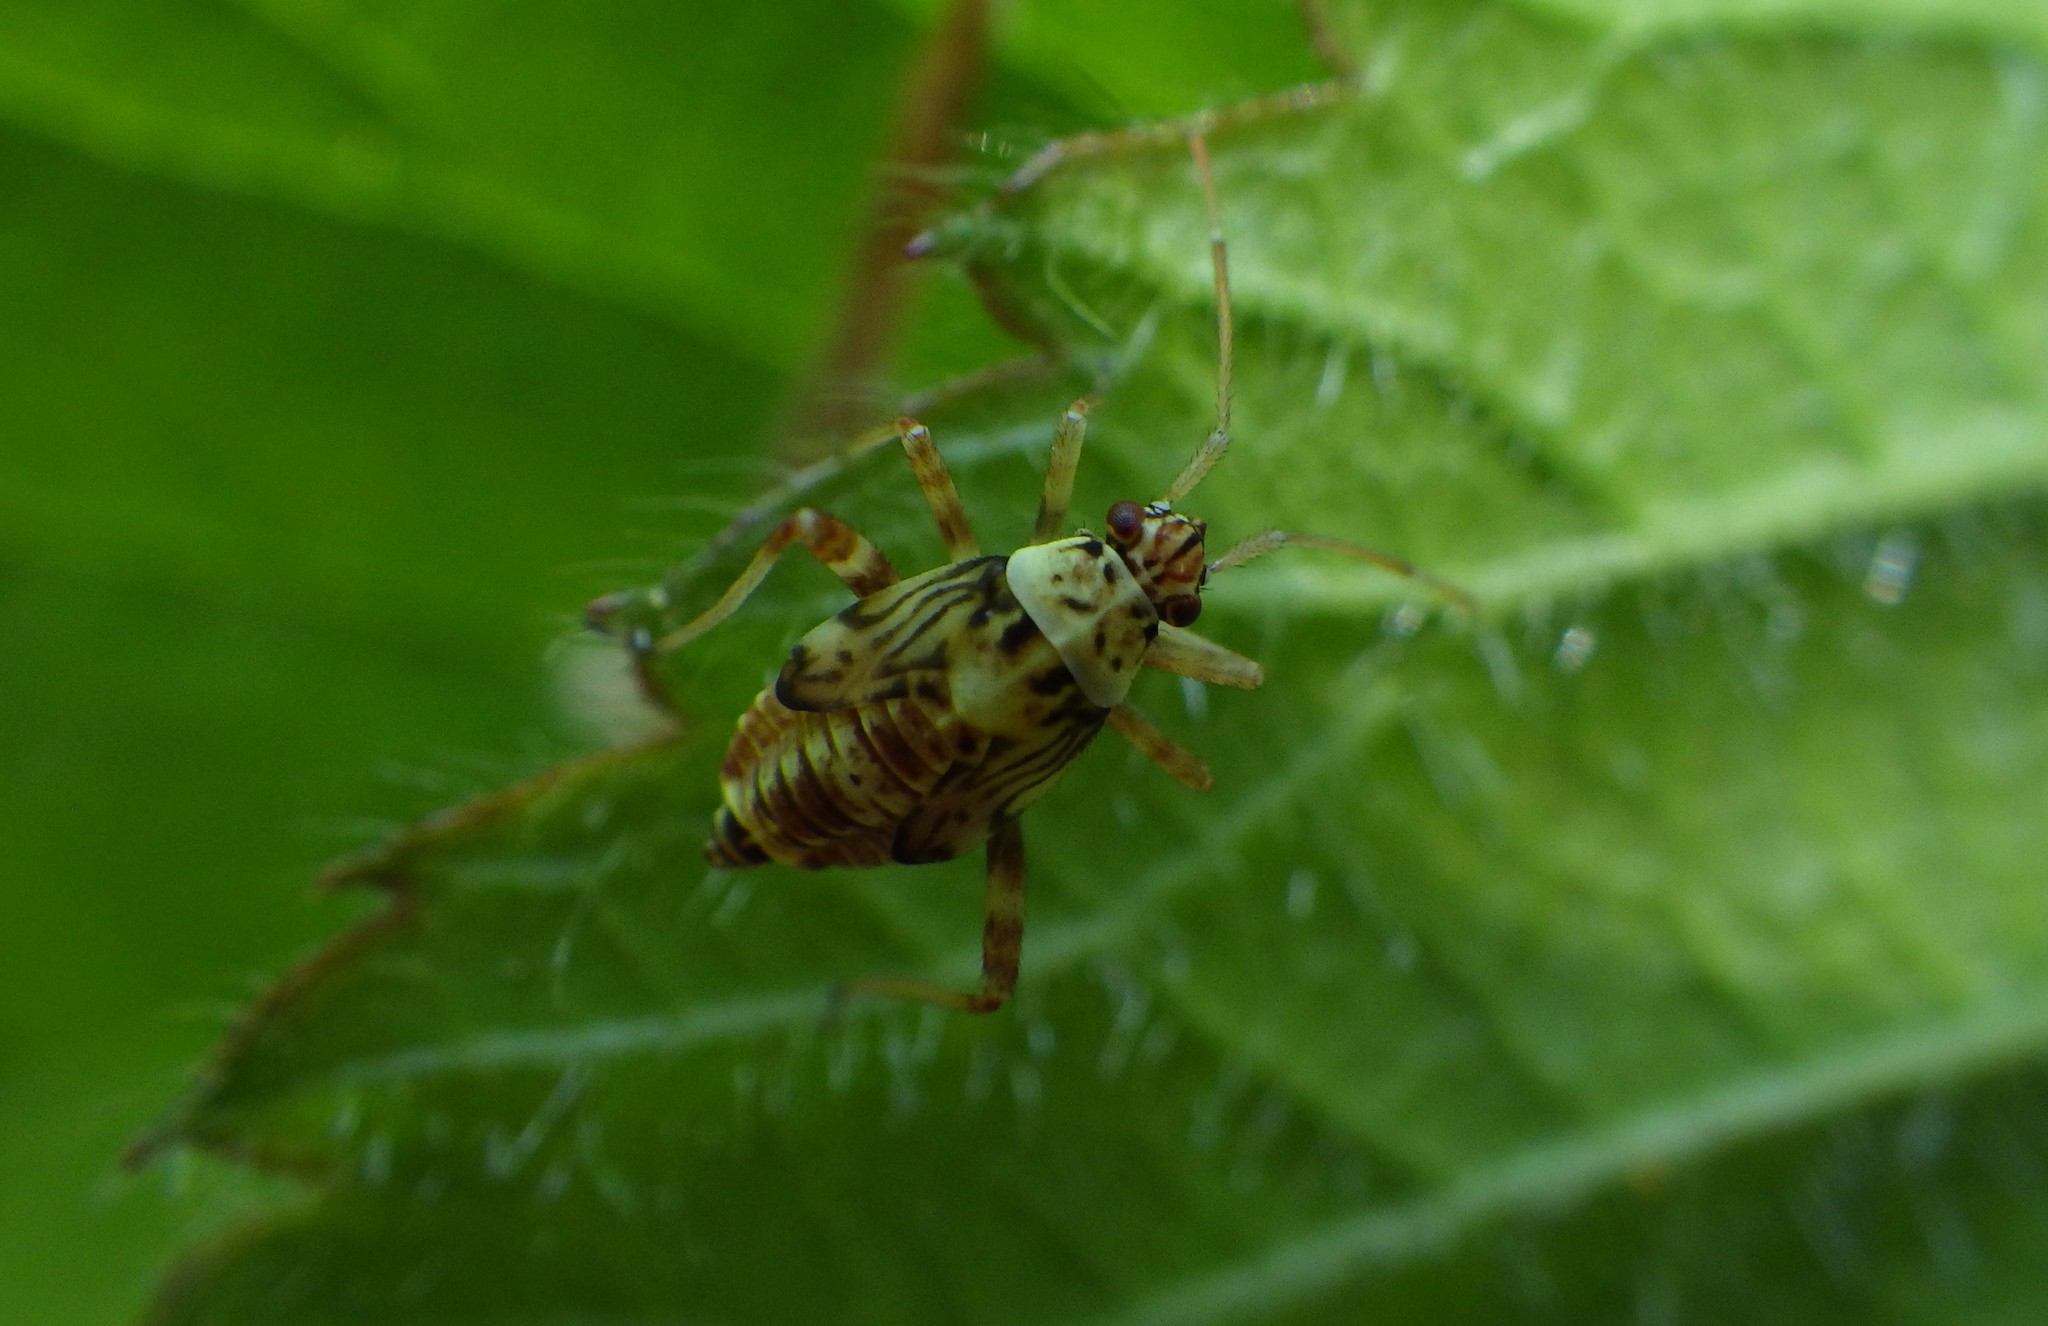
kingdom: Animalia
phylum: Arthropoda
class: Insecta
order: Hemiptera
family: Miridae
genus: Rhabdomiris
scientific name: Rhabdomiris striatellus
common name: Plant bug
